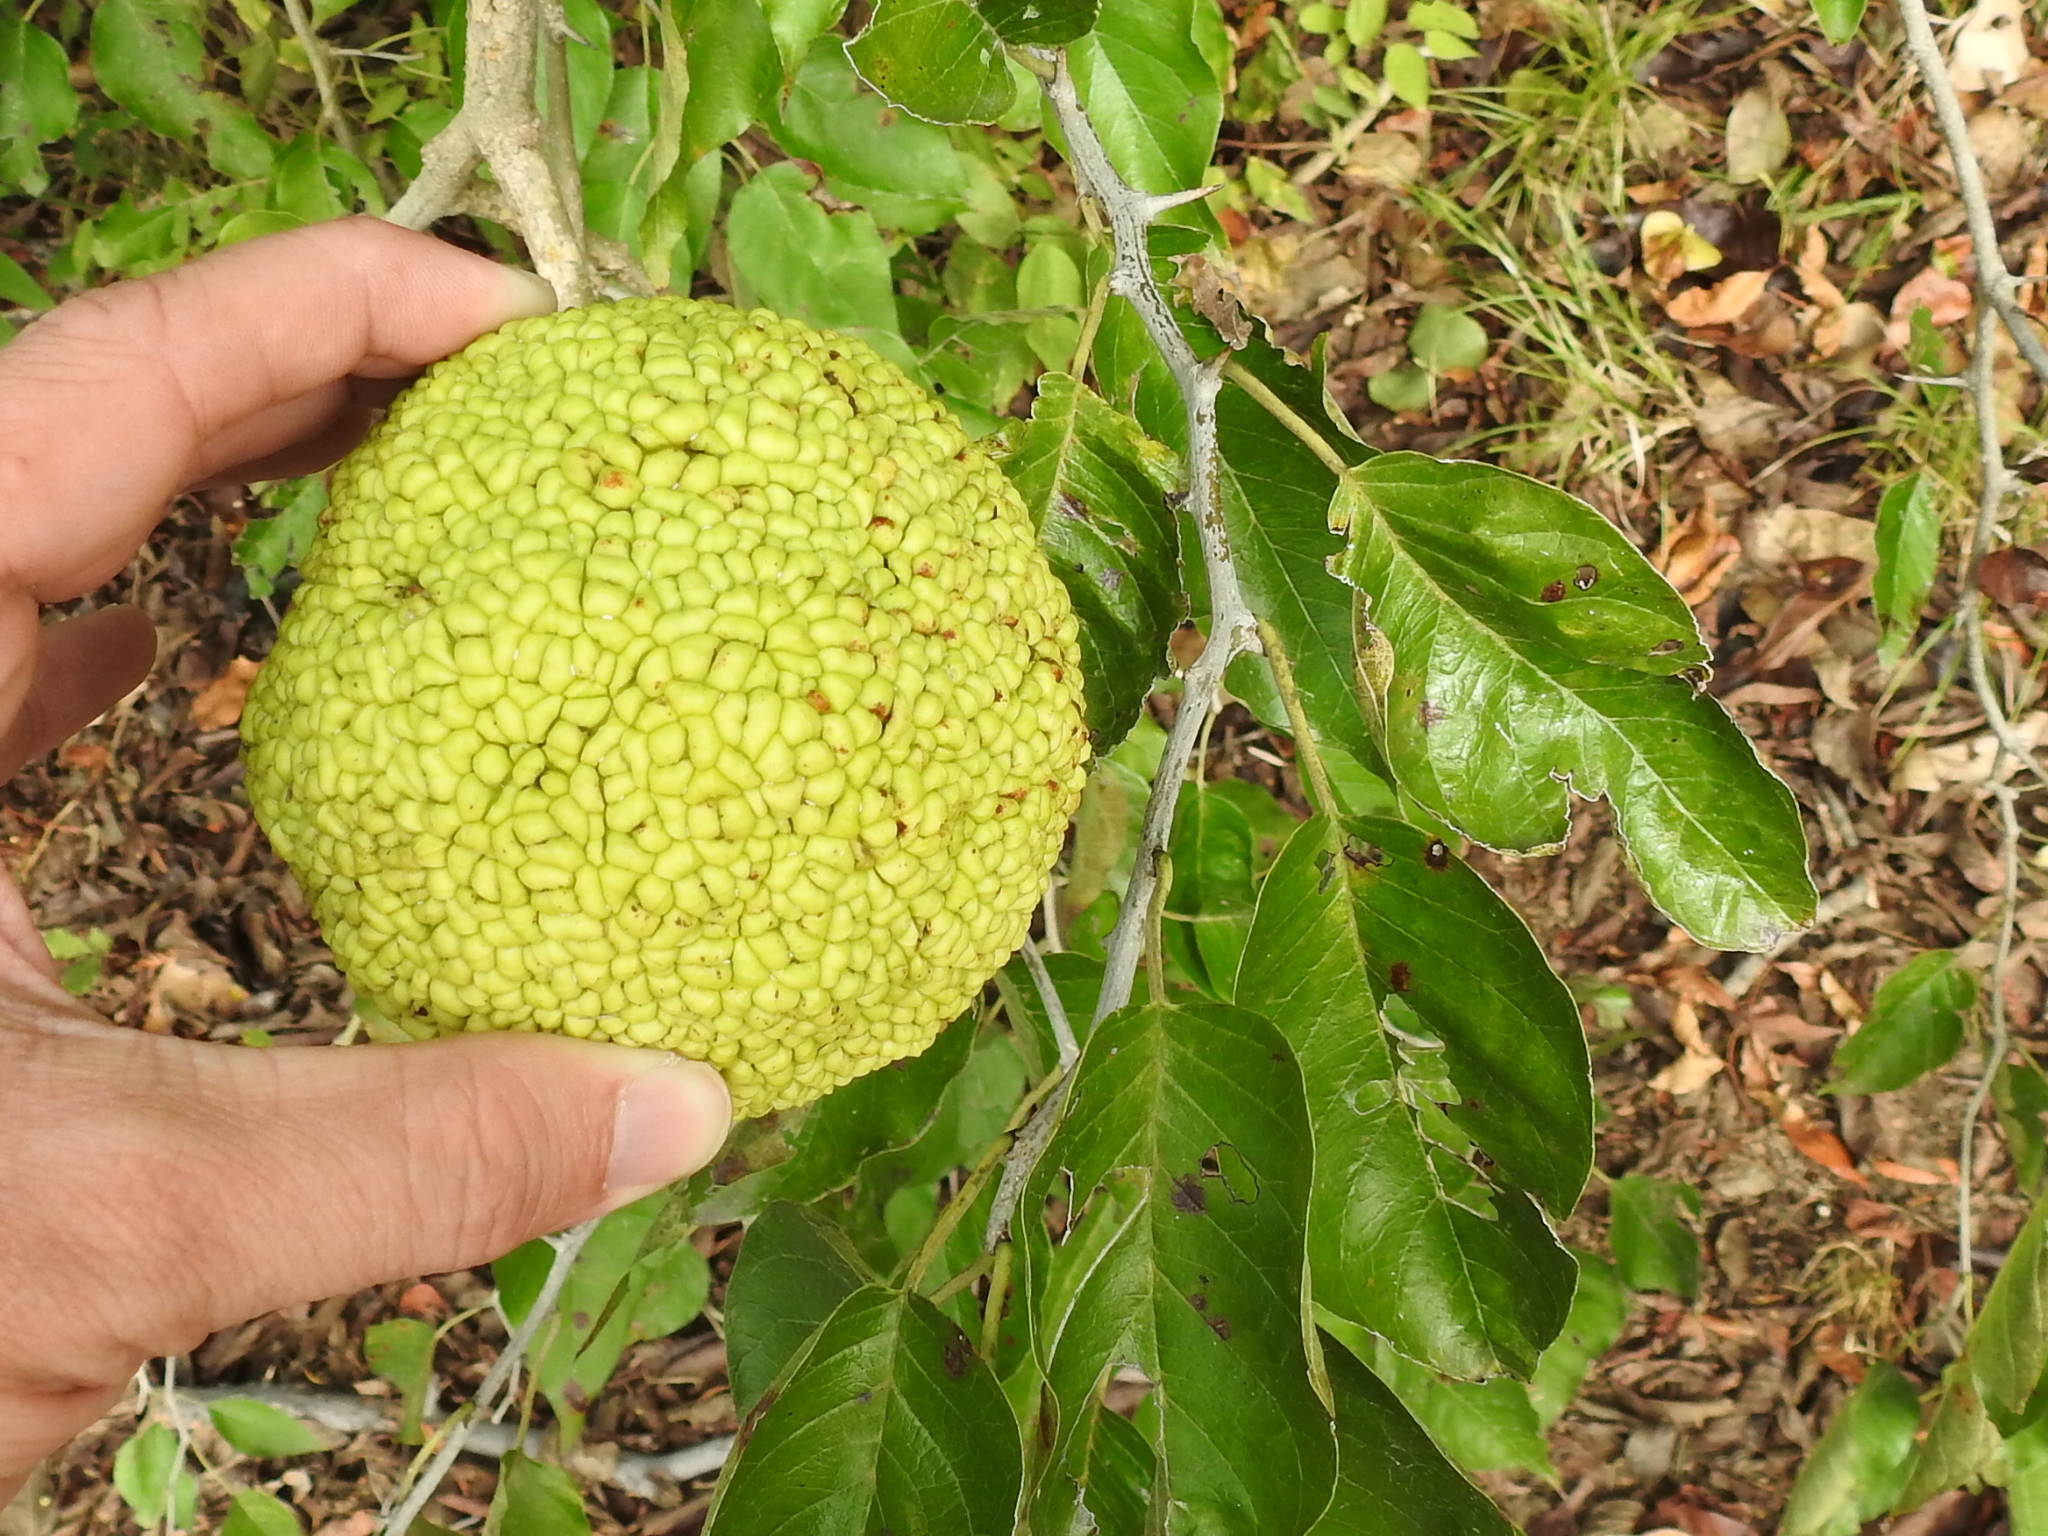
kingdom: Plantae
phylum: Tracheophyta
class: Magnoliopsida
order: Rosales
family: Moraceae
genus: Maclura
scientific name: Maclura pomifera
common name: Osage-orange
